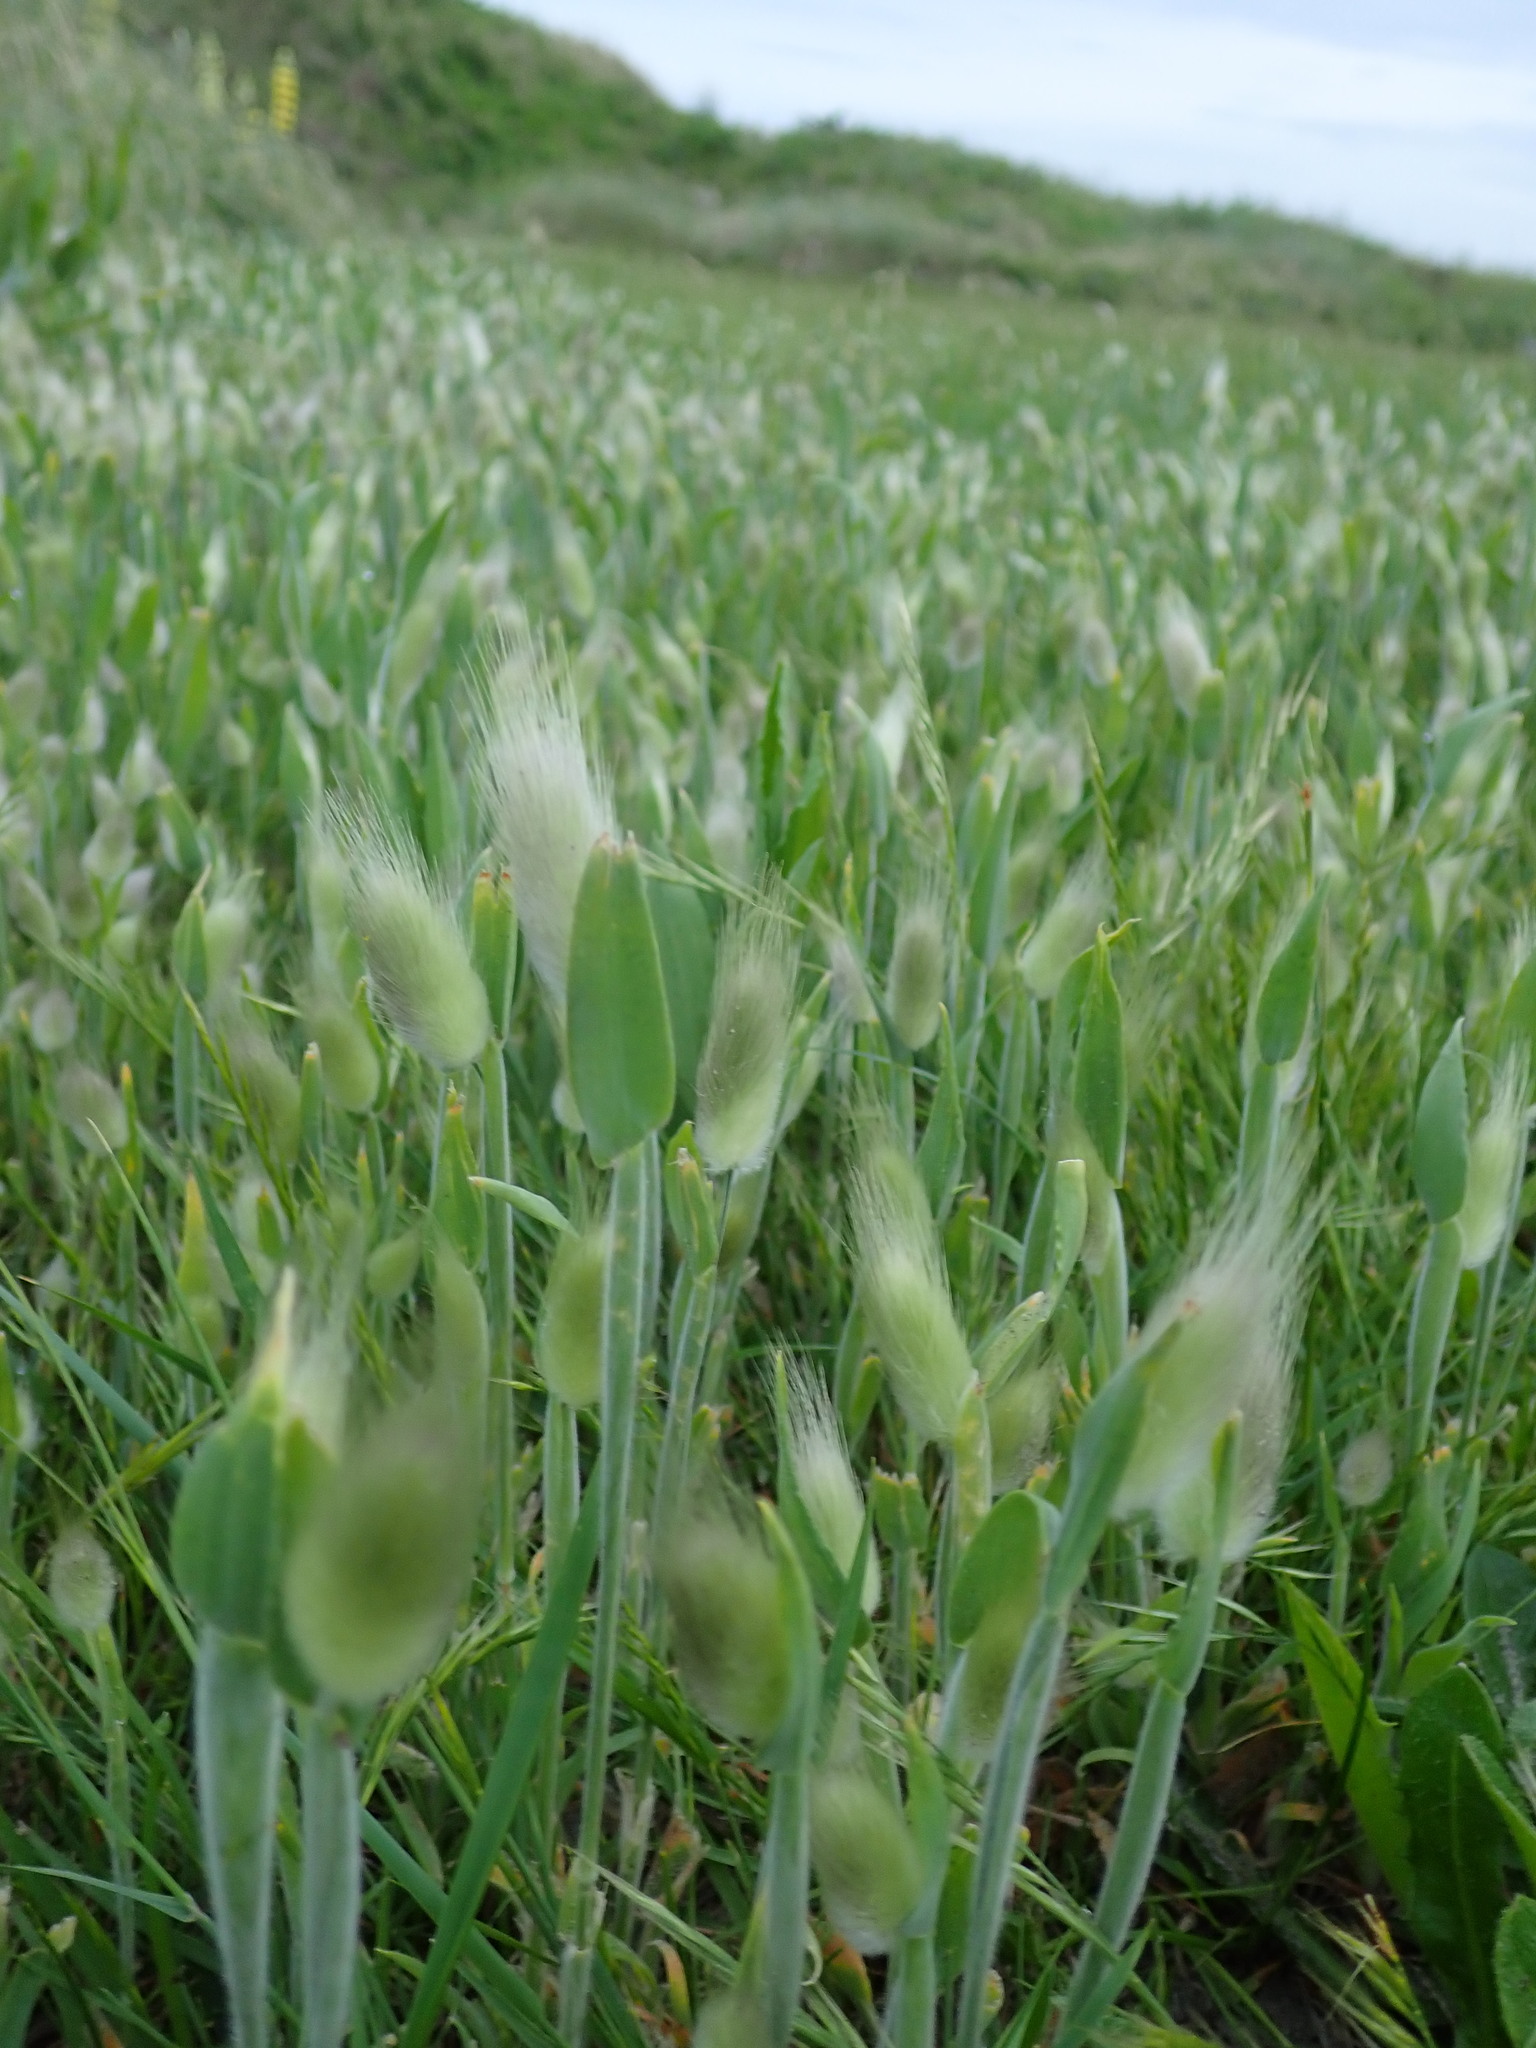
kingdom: Plantae
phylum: Tracheophyta
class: Liliopsida
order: Poales
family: Poaceae
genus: Lagurus
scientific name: Lagurus ovatus
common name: Hare's-tail
